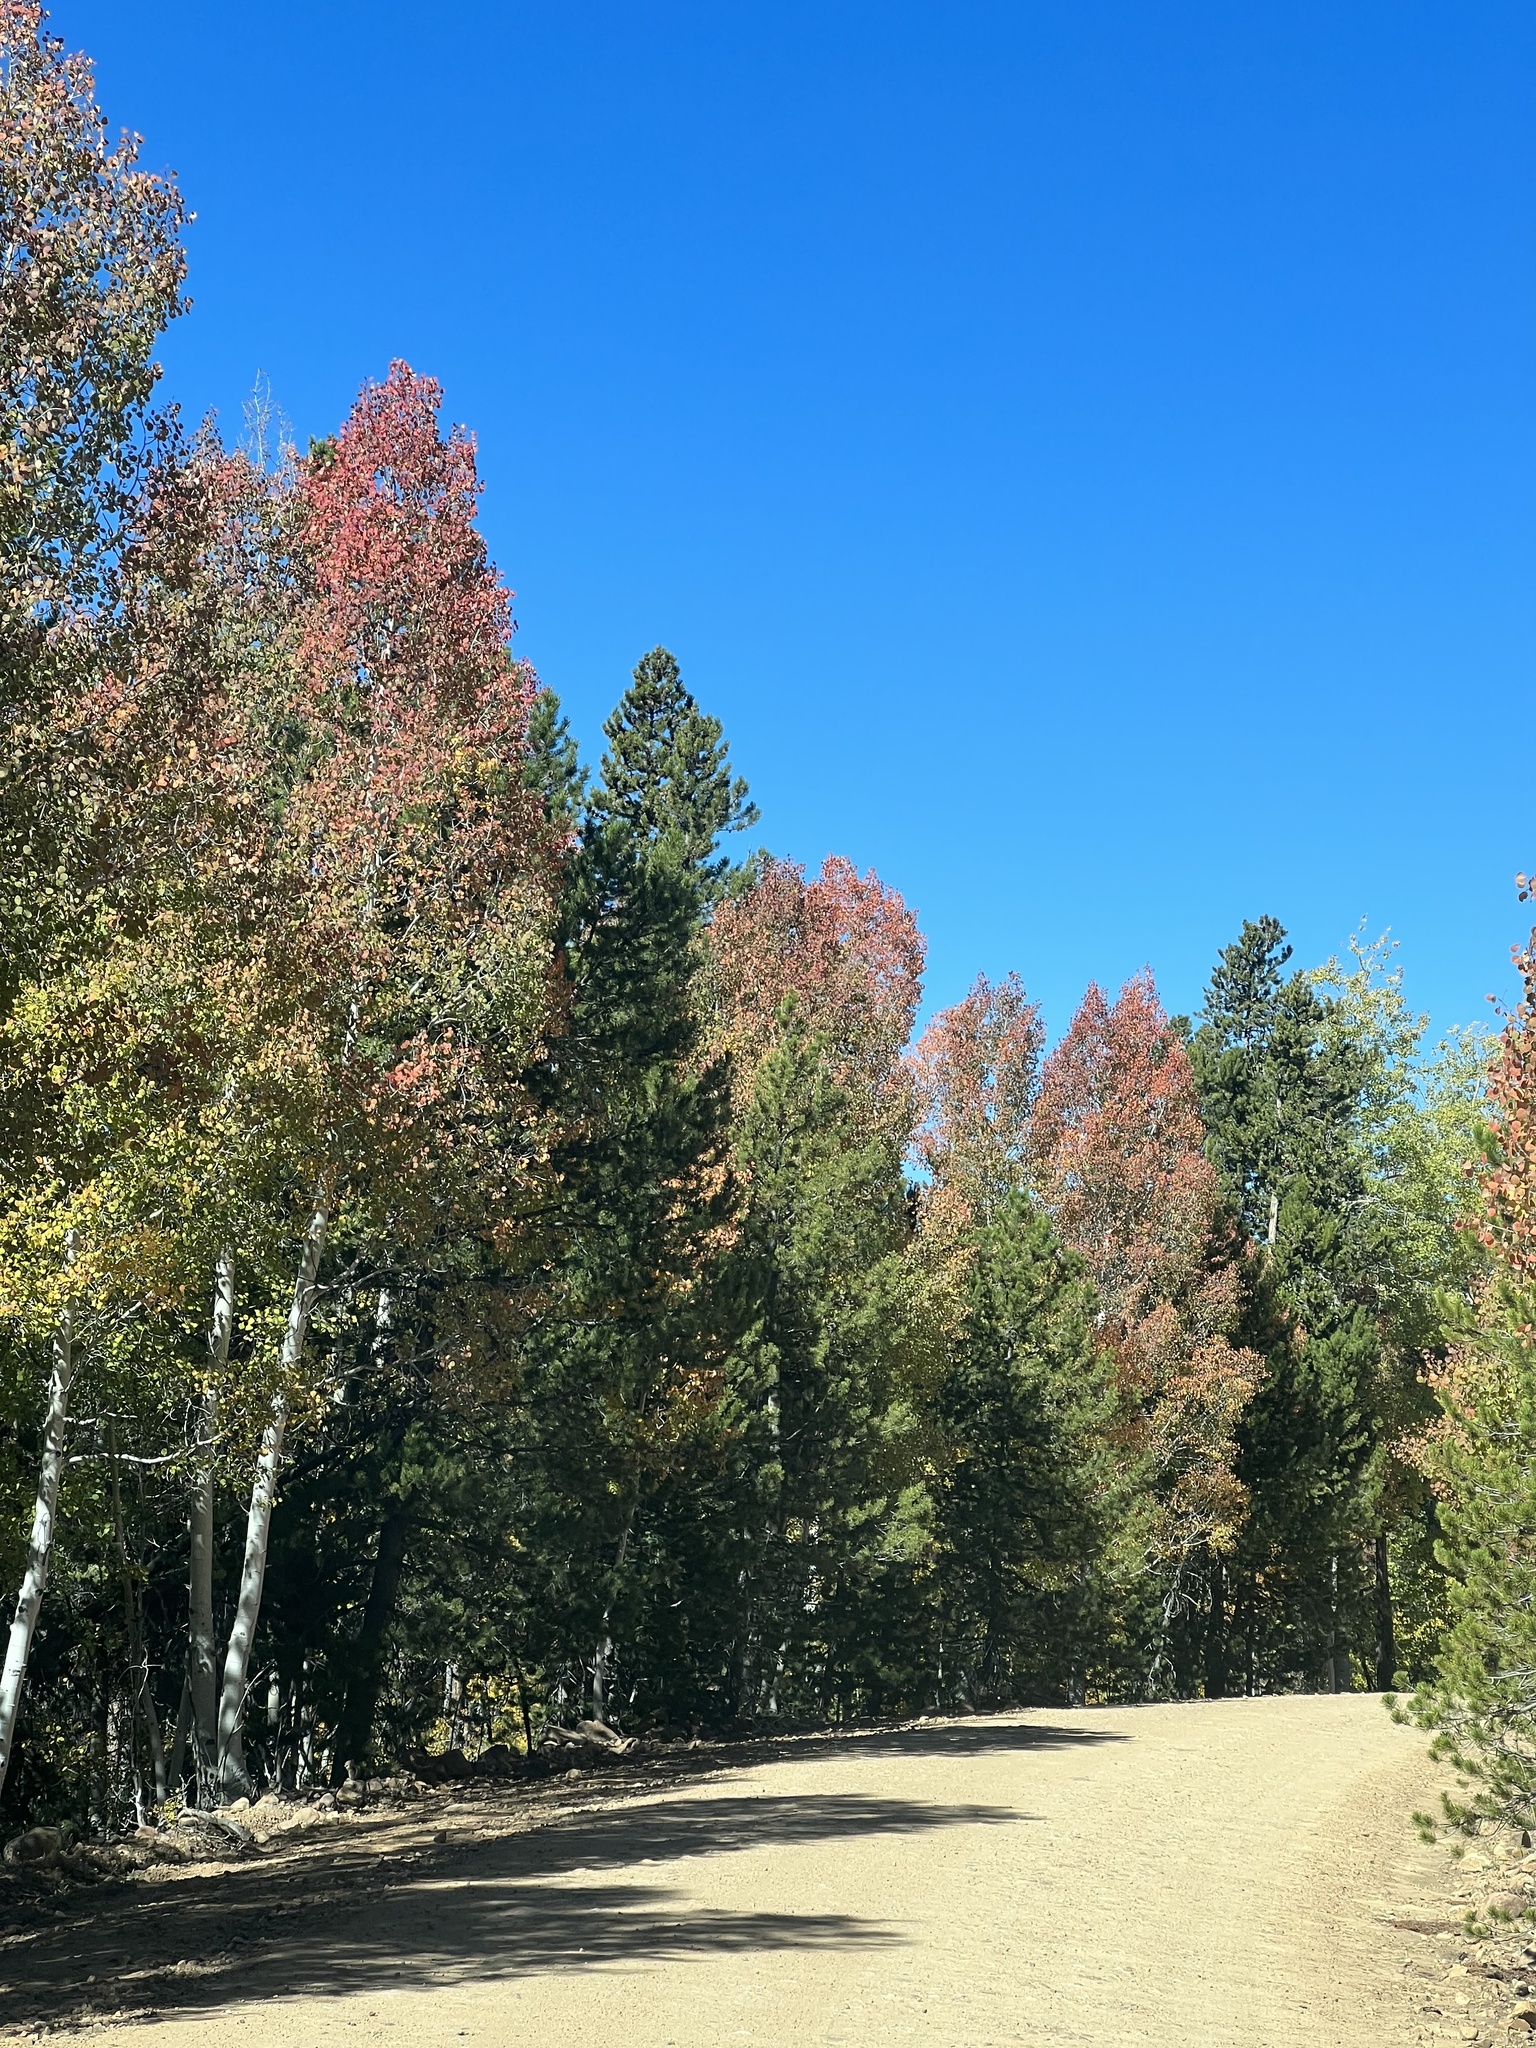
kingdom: Plantae
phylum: Tracheophyta
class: Magnoliopsida
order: Malpighiales
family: Salicaceae
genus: Populus
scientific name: Populus tremuloides
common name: Quaking aspen
